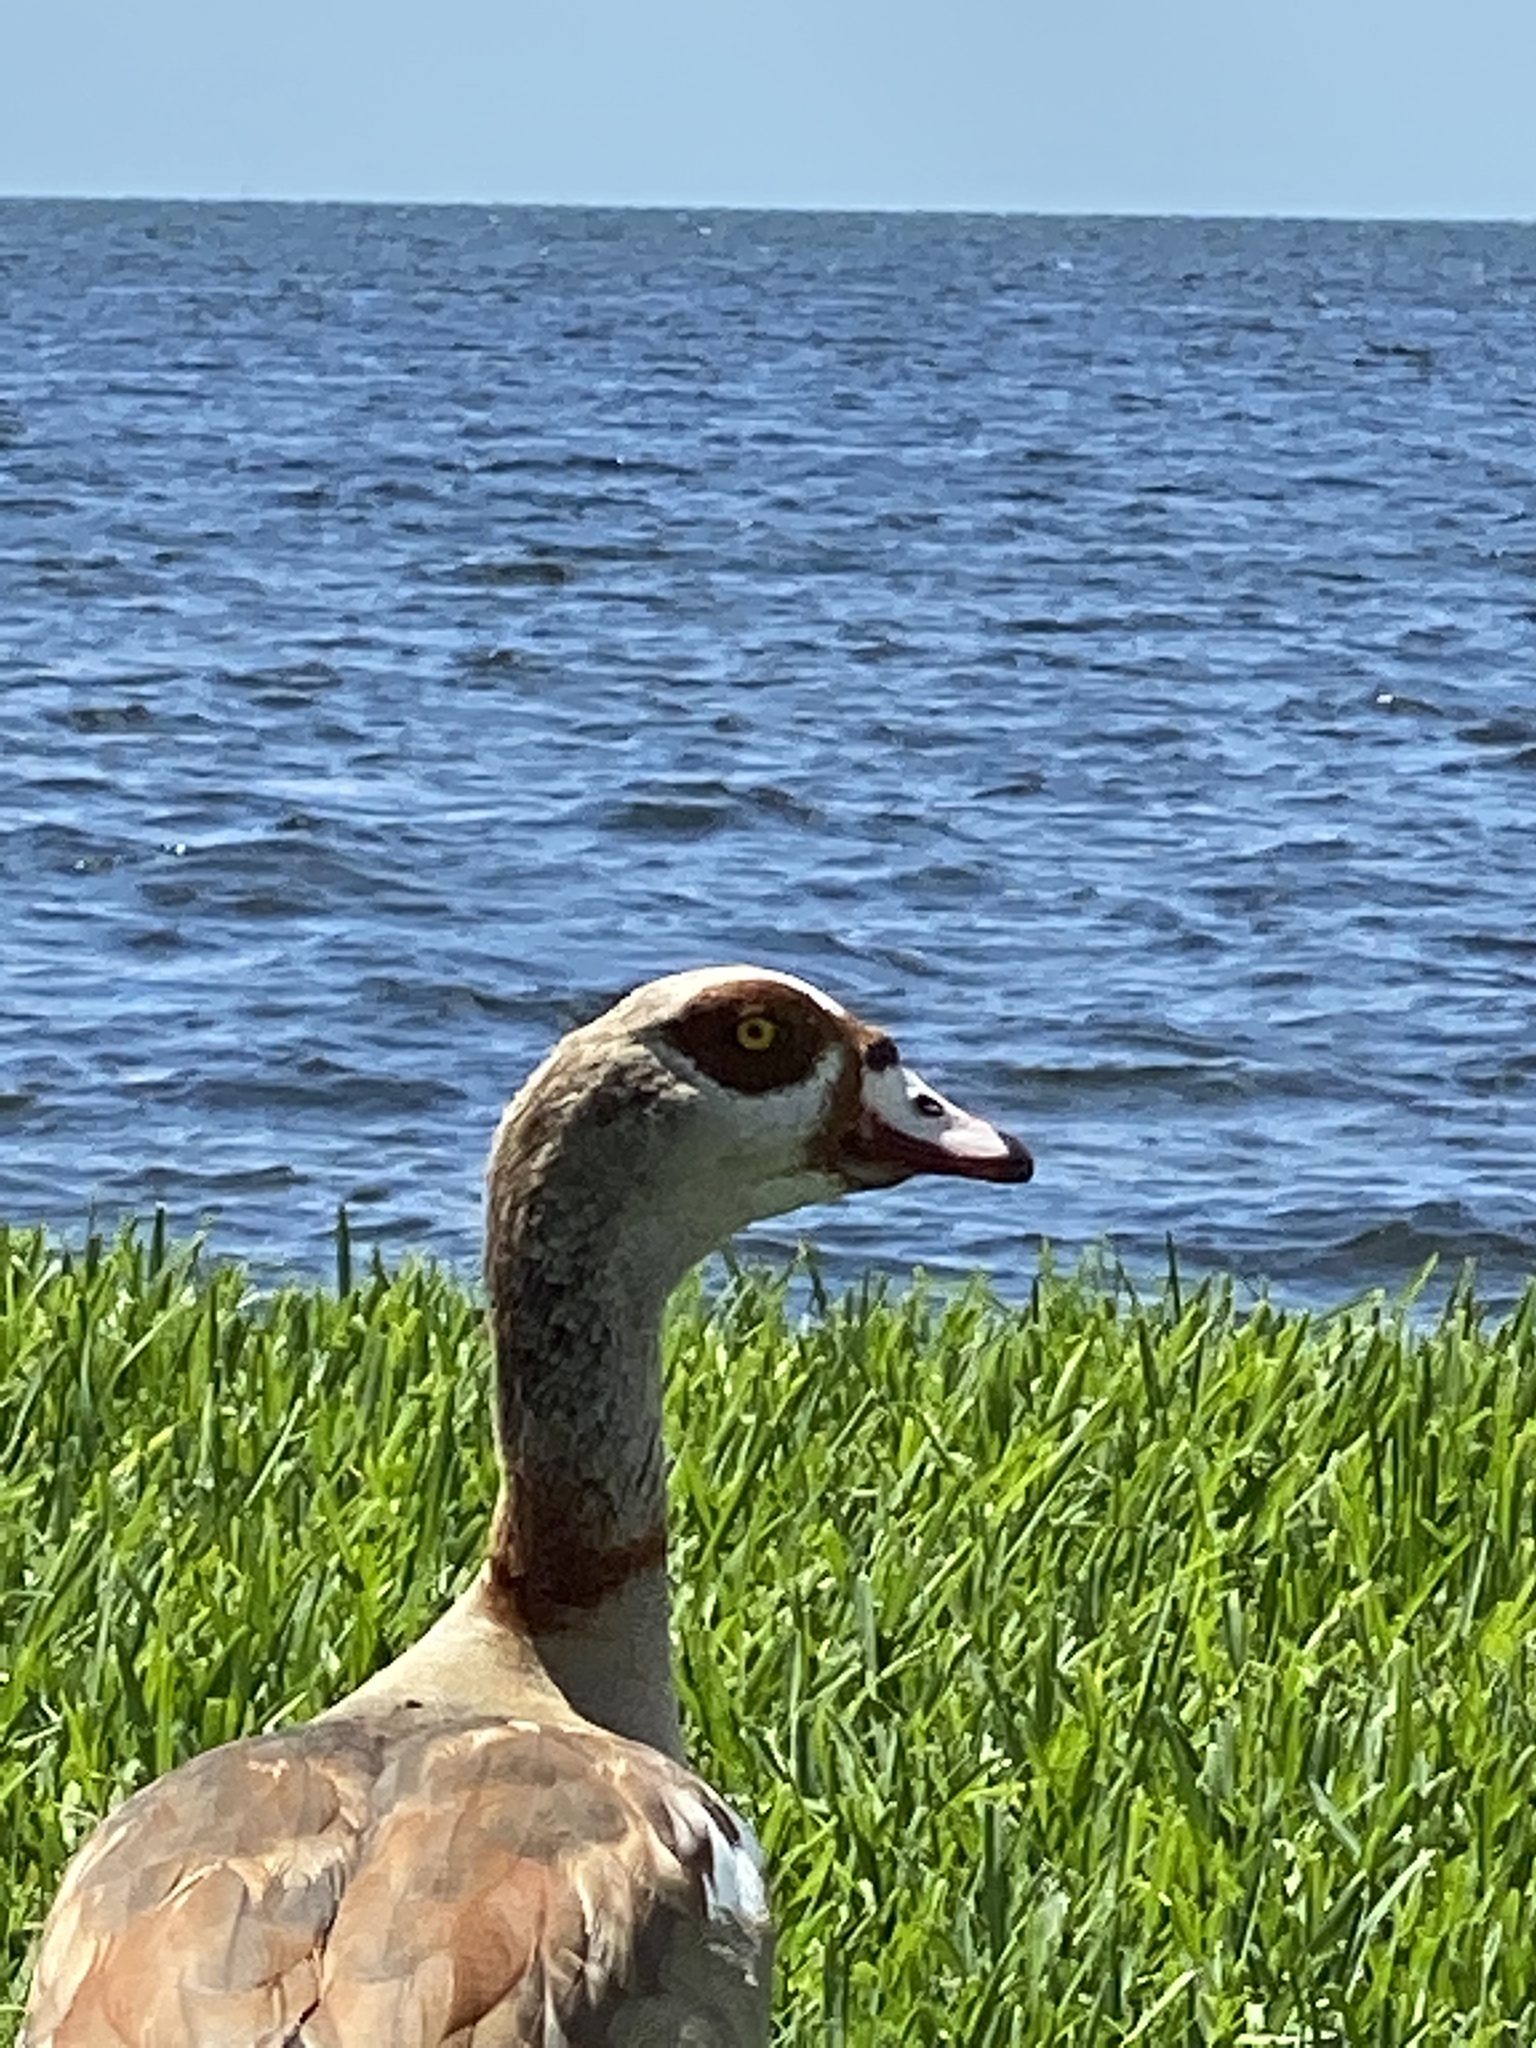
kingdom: Animalia
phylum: Chordata
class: Aves
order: Anseriformes
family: Anatidae
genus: Alopochen
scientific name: Alopochen aegyptiaca
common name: Egyptian goose
